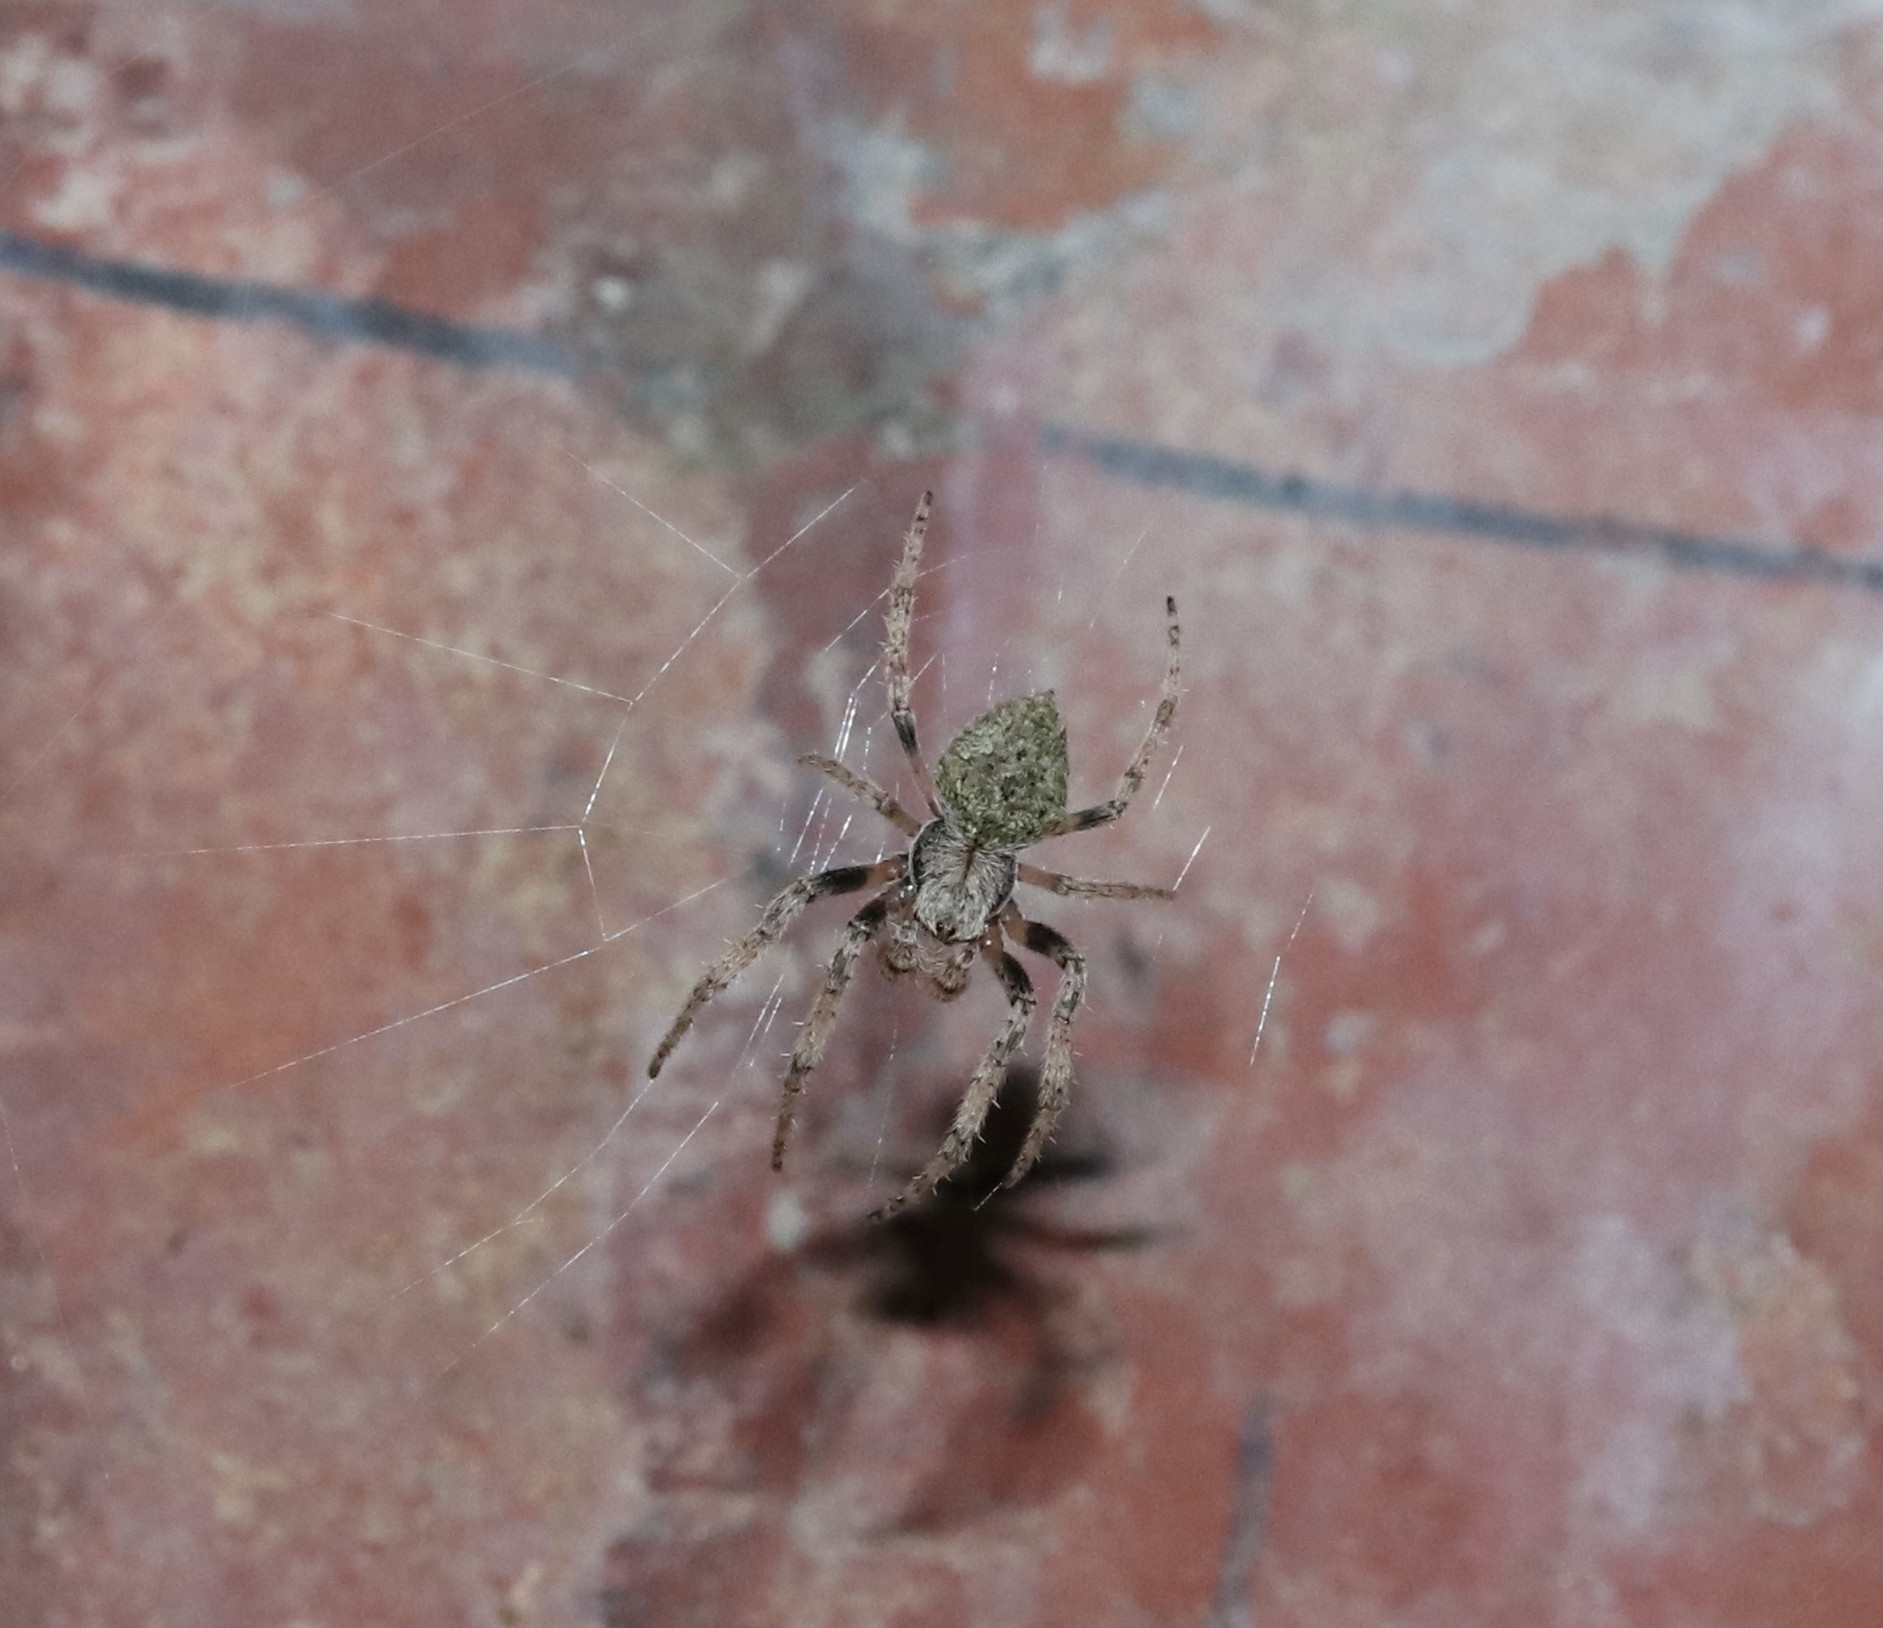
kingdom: Animalia
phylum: Arthropoda
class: Arachnida
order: Araneae
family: Araneidae
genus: Eriophora
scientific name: Eriophora pustulosa
